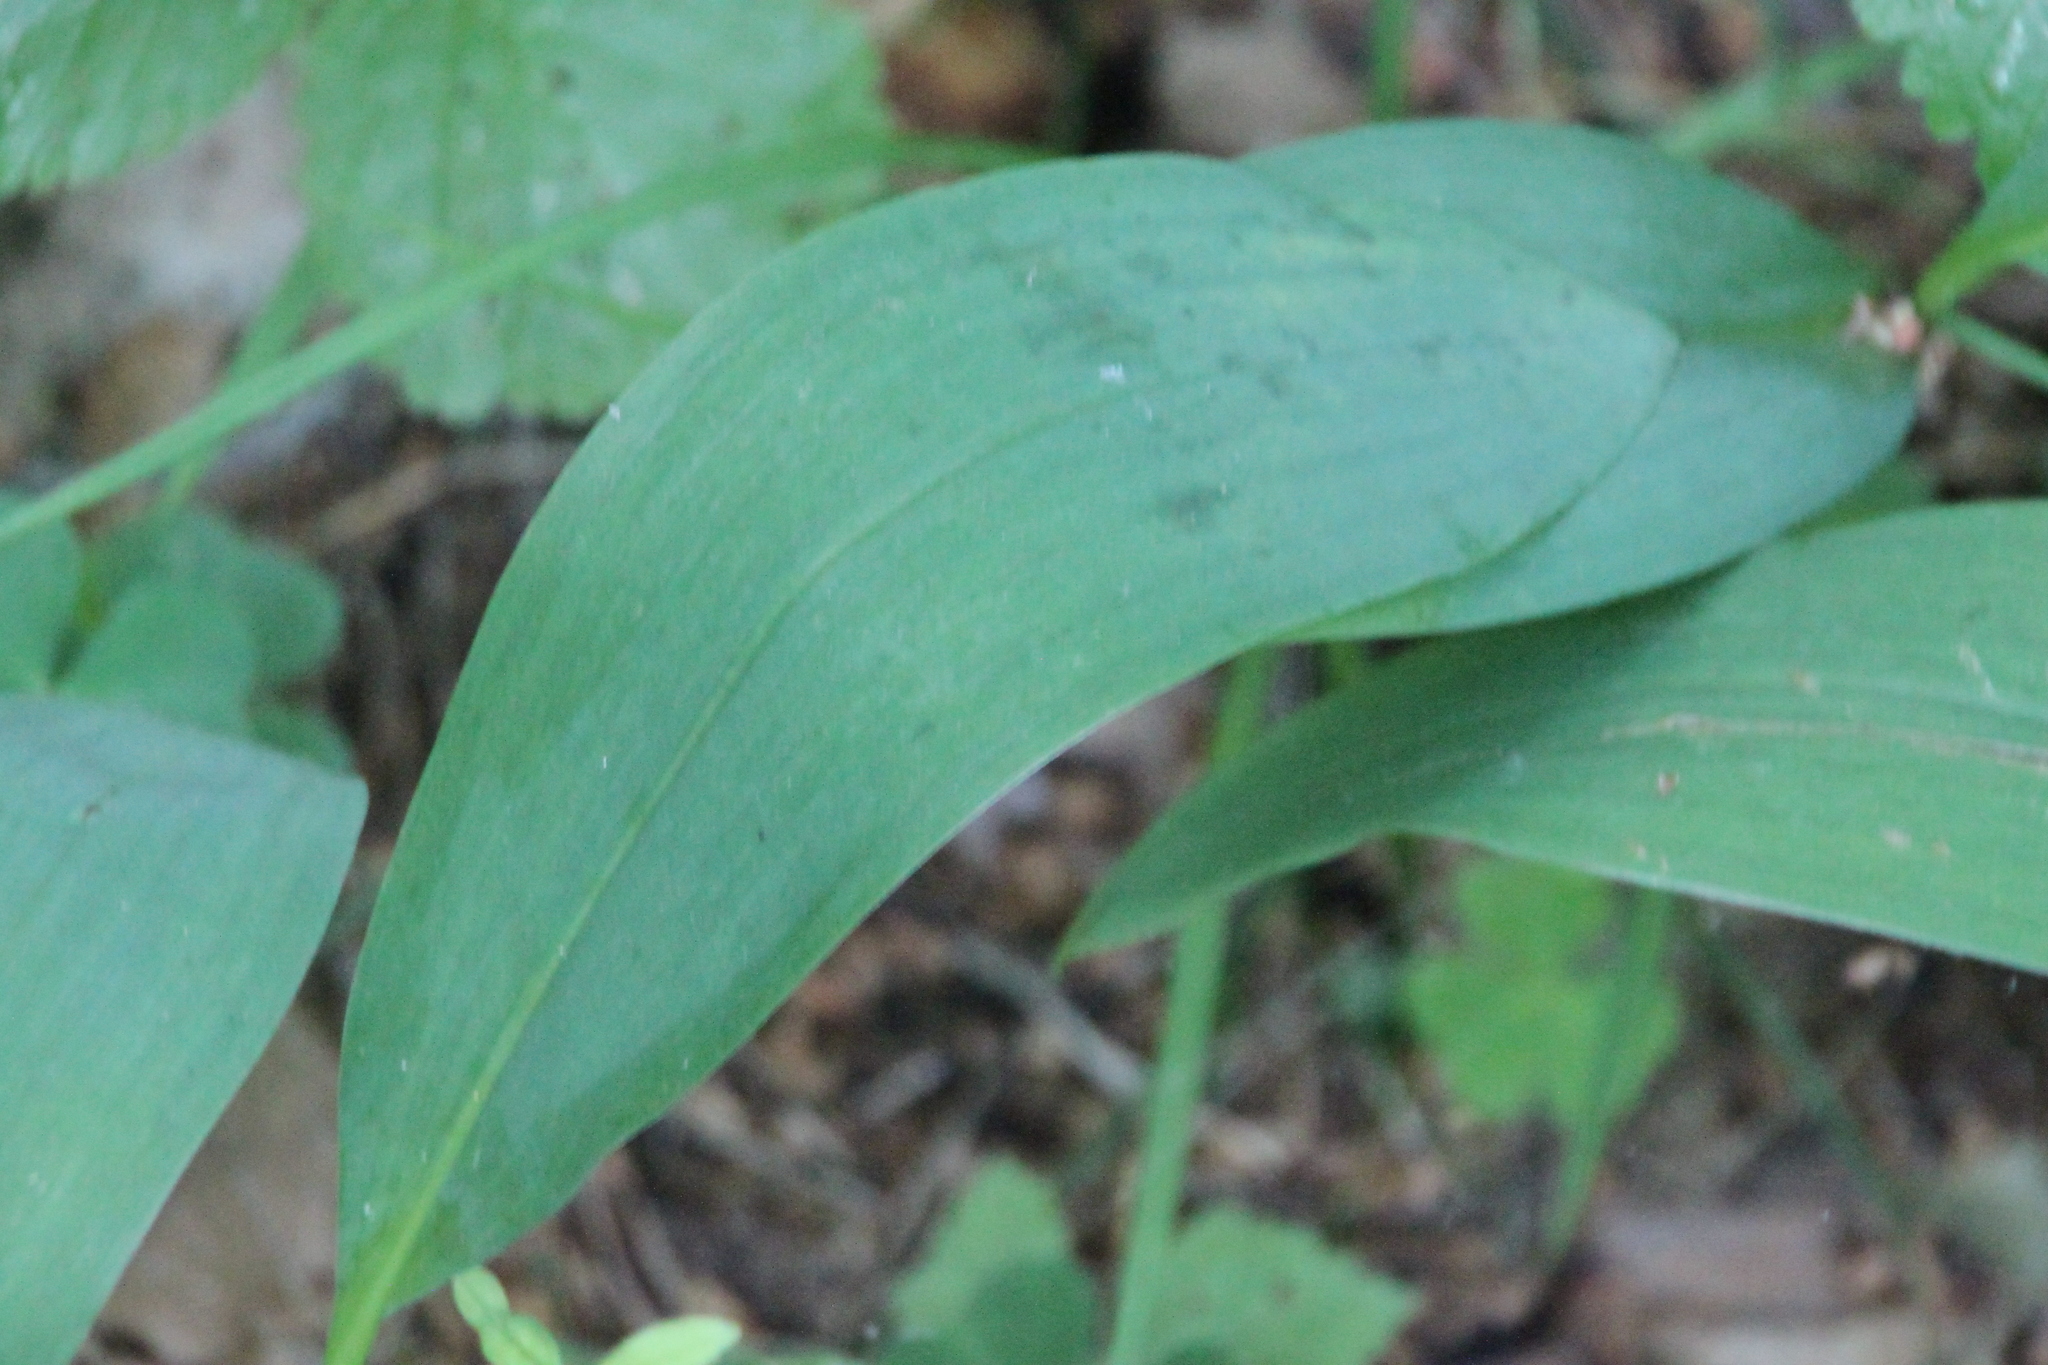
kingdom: Plantae
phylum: Tracheophyta
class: Liliopsida
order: Asparagales
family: Asparagaceae
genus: Convallaria
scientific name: Convallaria majalis
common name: Lily-of-the-valley
